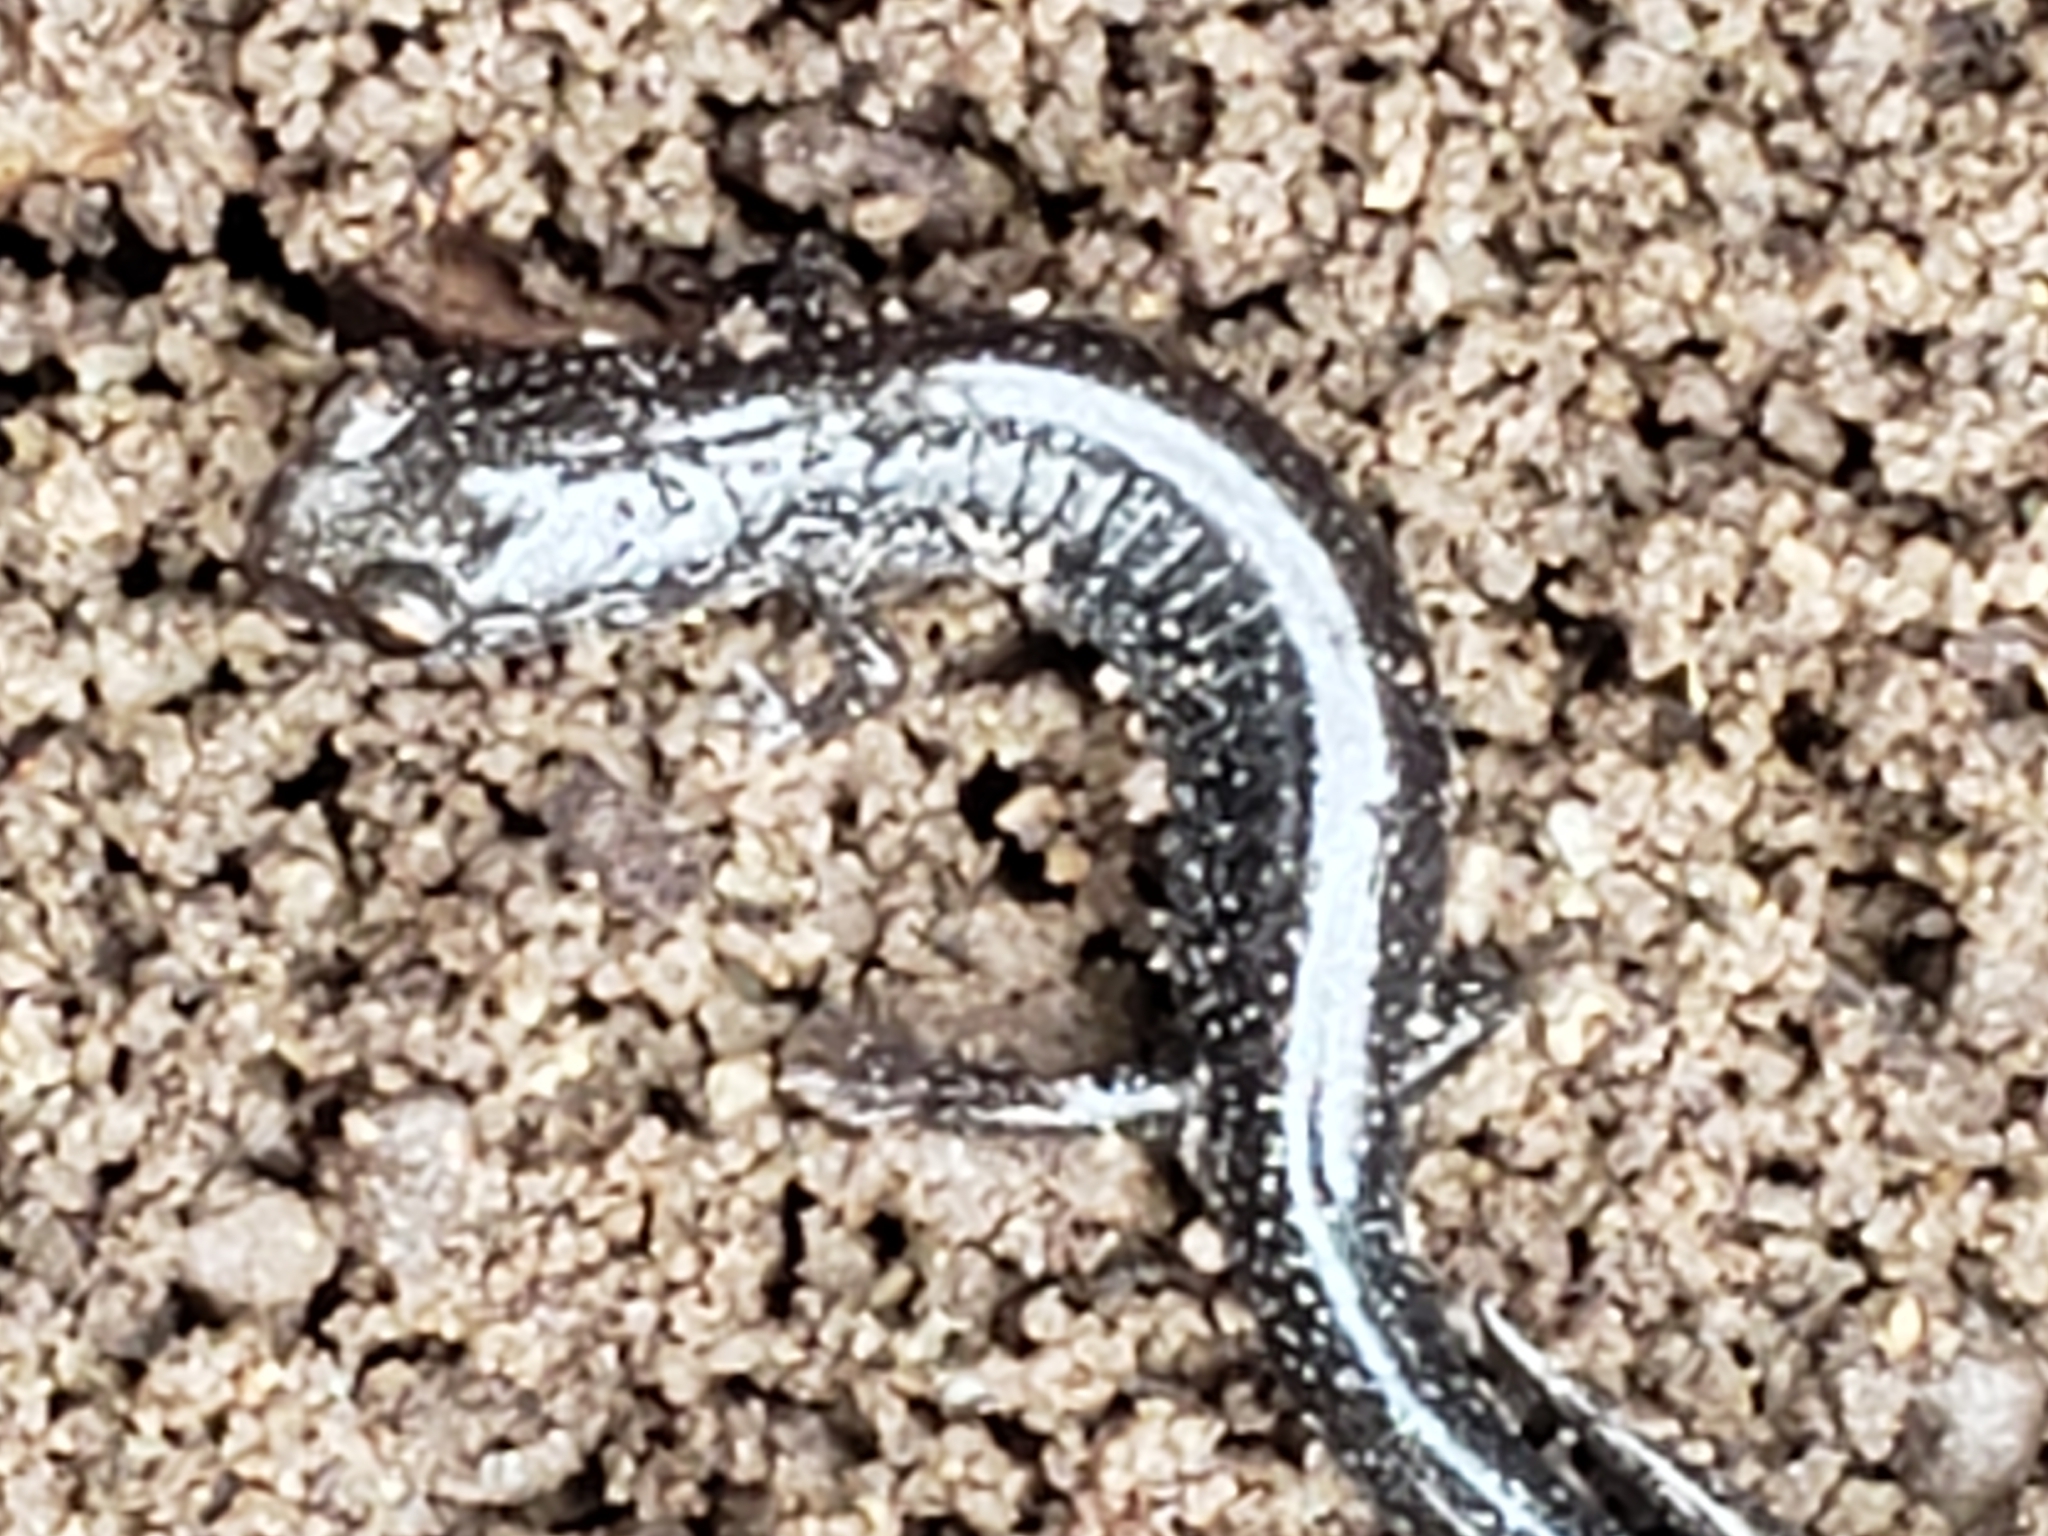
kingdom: Animalia
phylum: Chordata
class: Amphibia
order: Caudata
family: Plethodontidae
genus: Plethodon
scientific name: Plethodon cinereus
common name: Redback salamander
